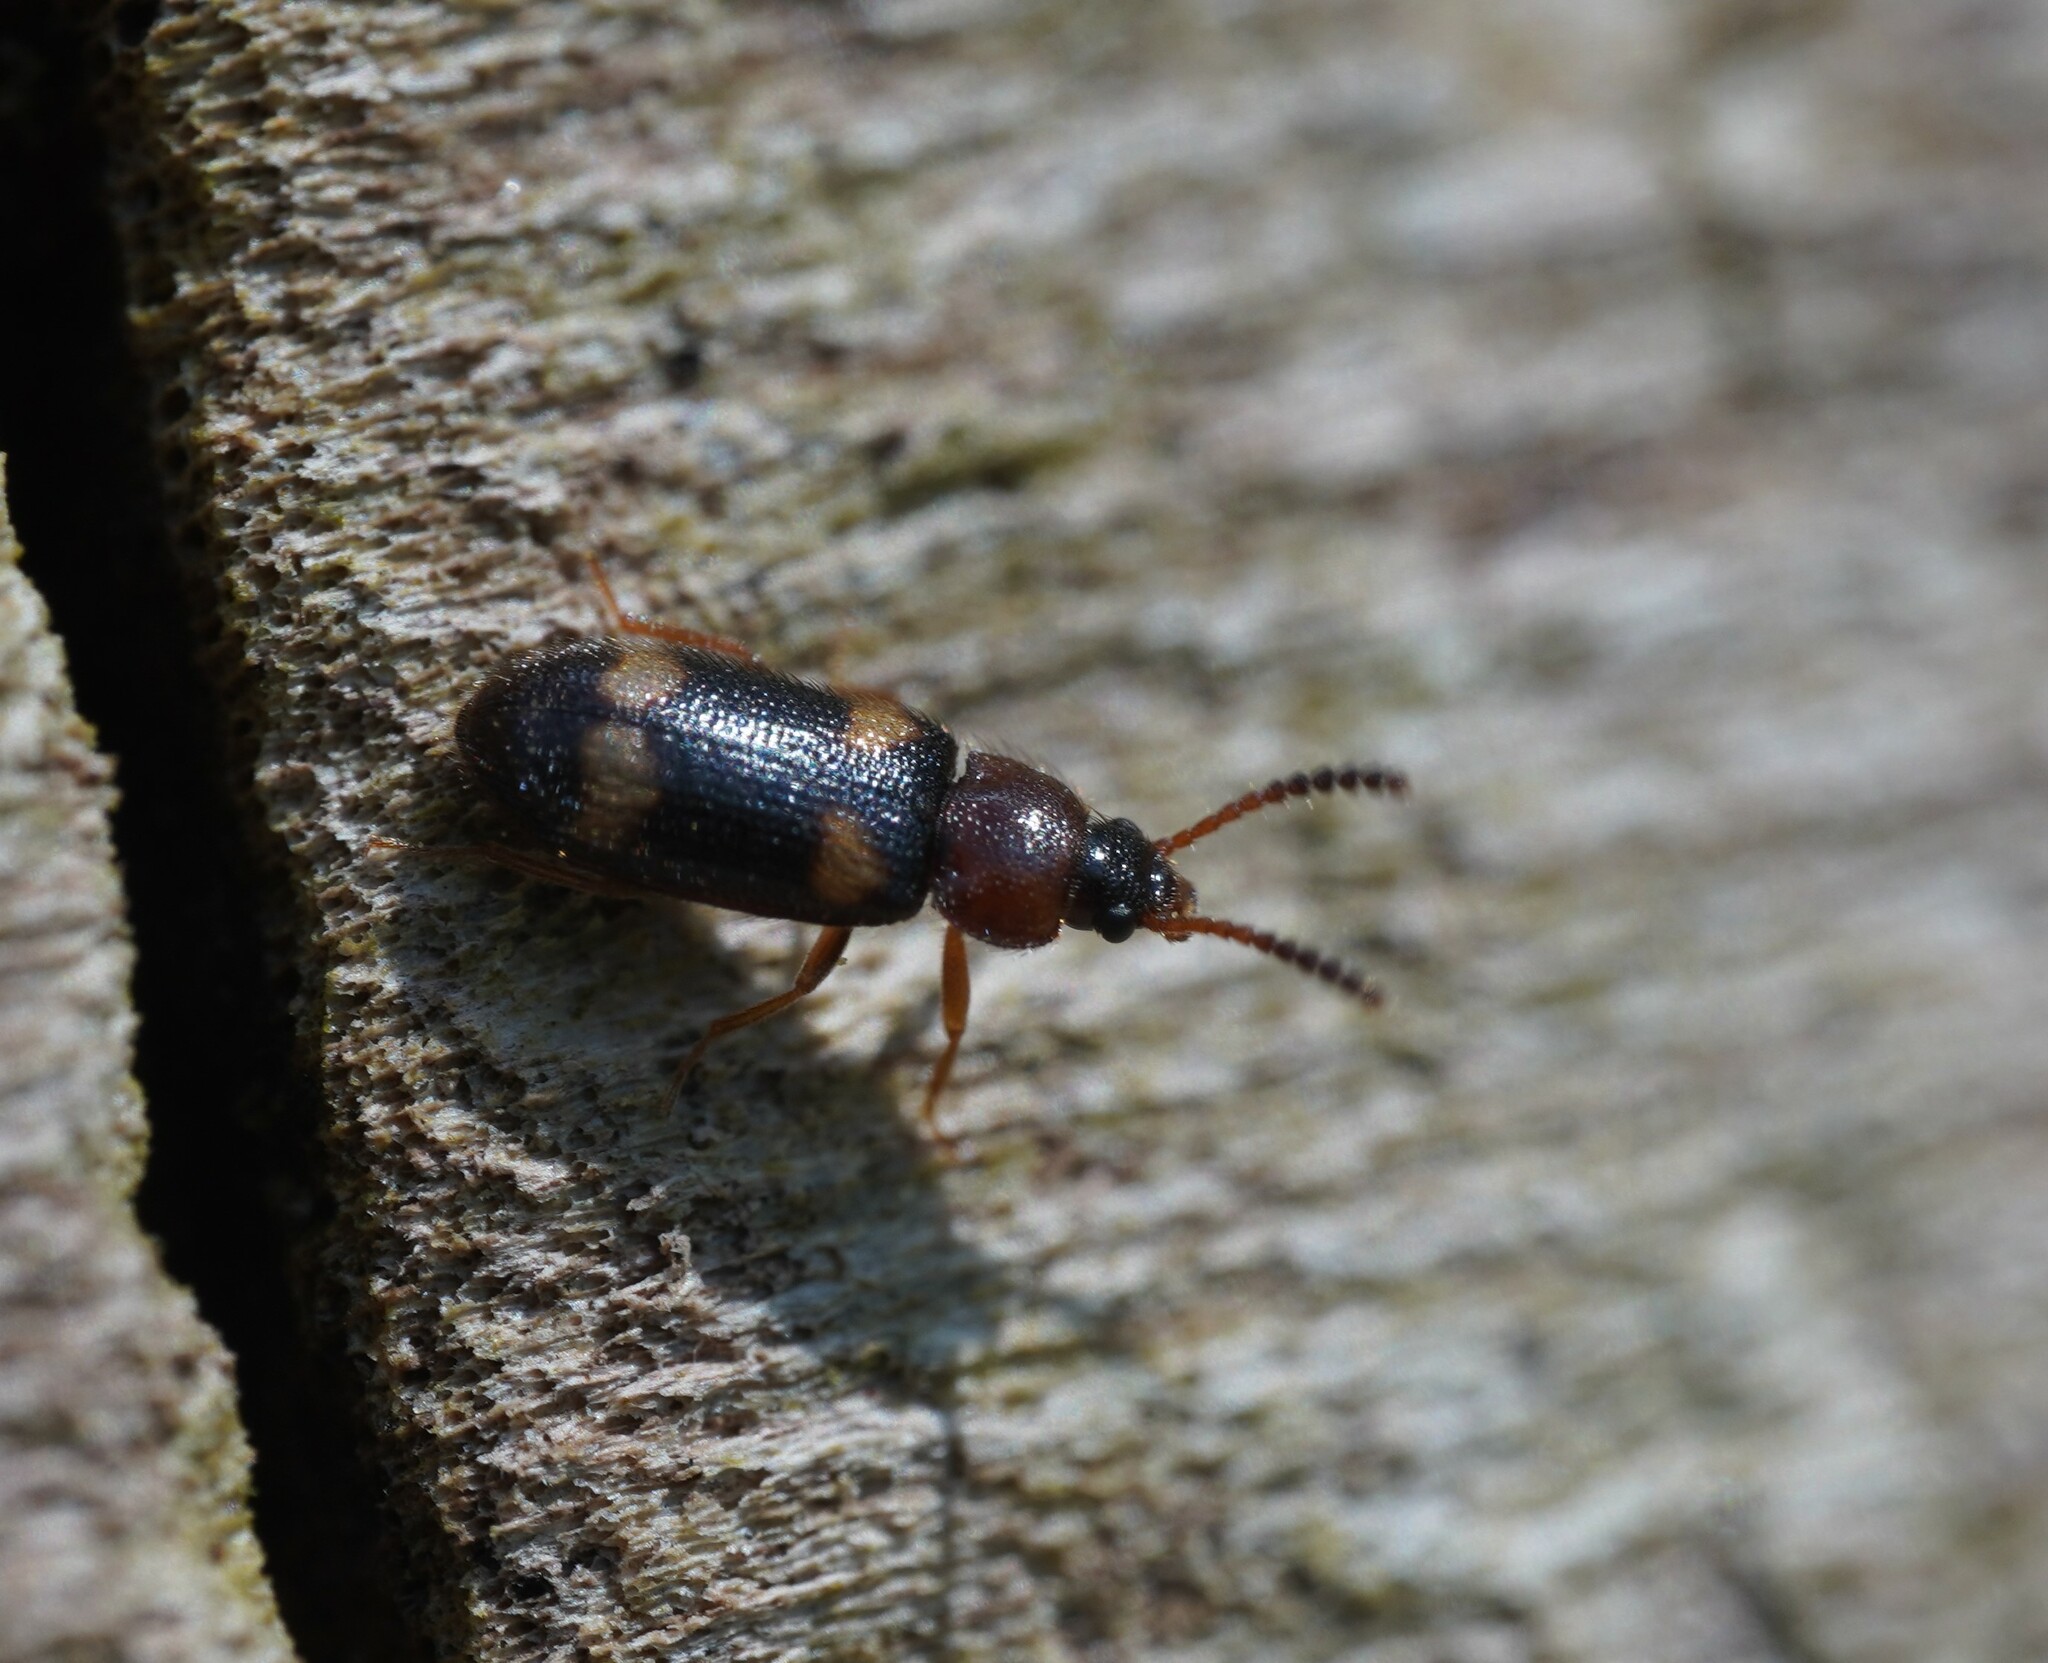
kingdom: Animalia
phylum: Arthropoda
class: Insecta
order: Coleoptera
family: Mycetophagidae
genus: Mycetophagus
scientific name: Mycetophagus fulvicollis
